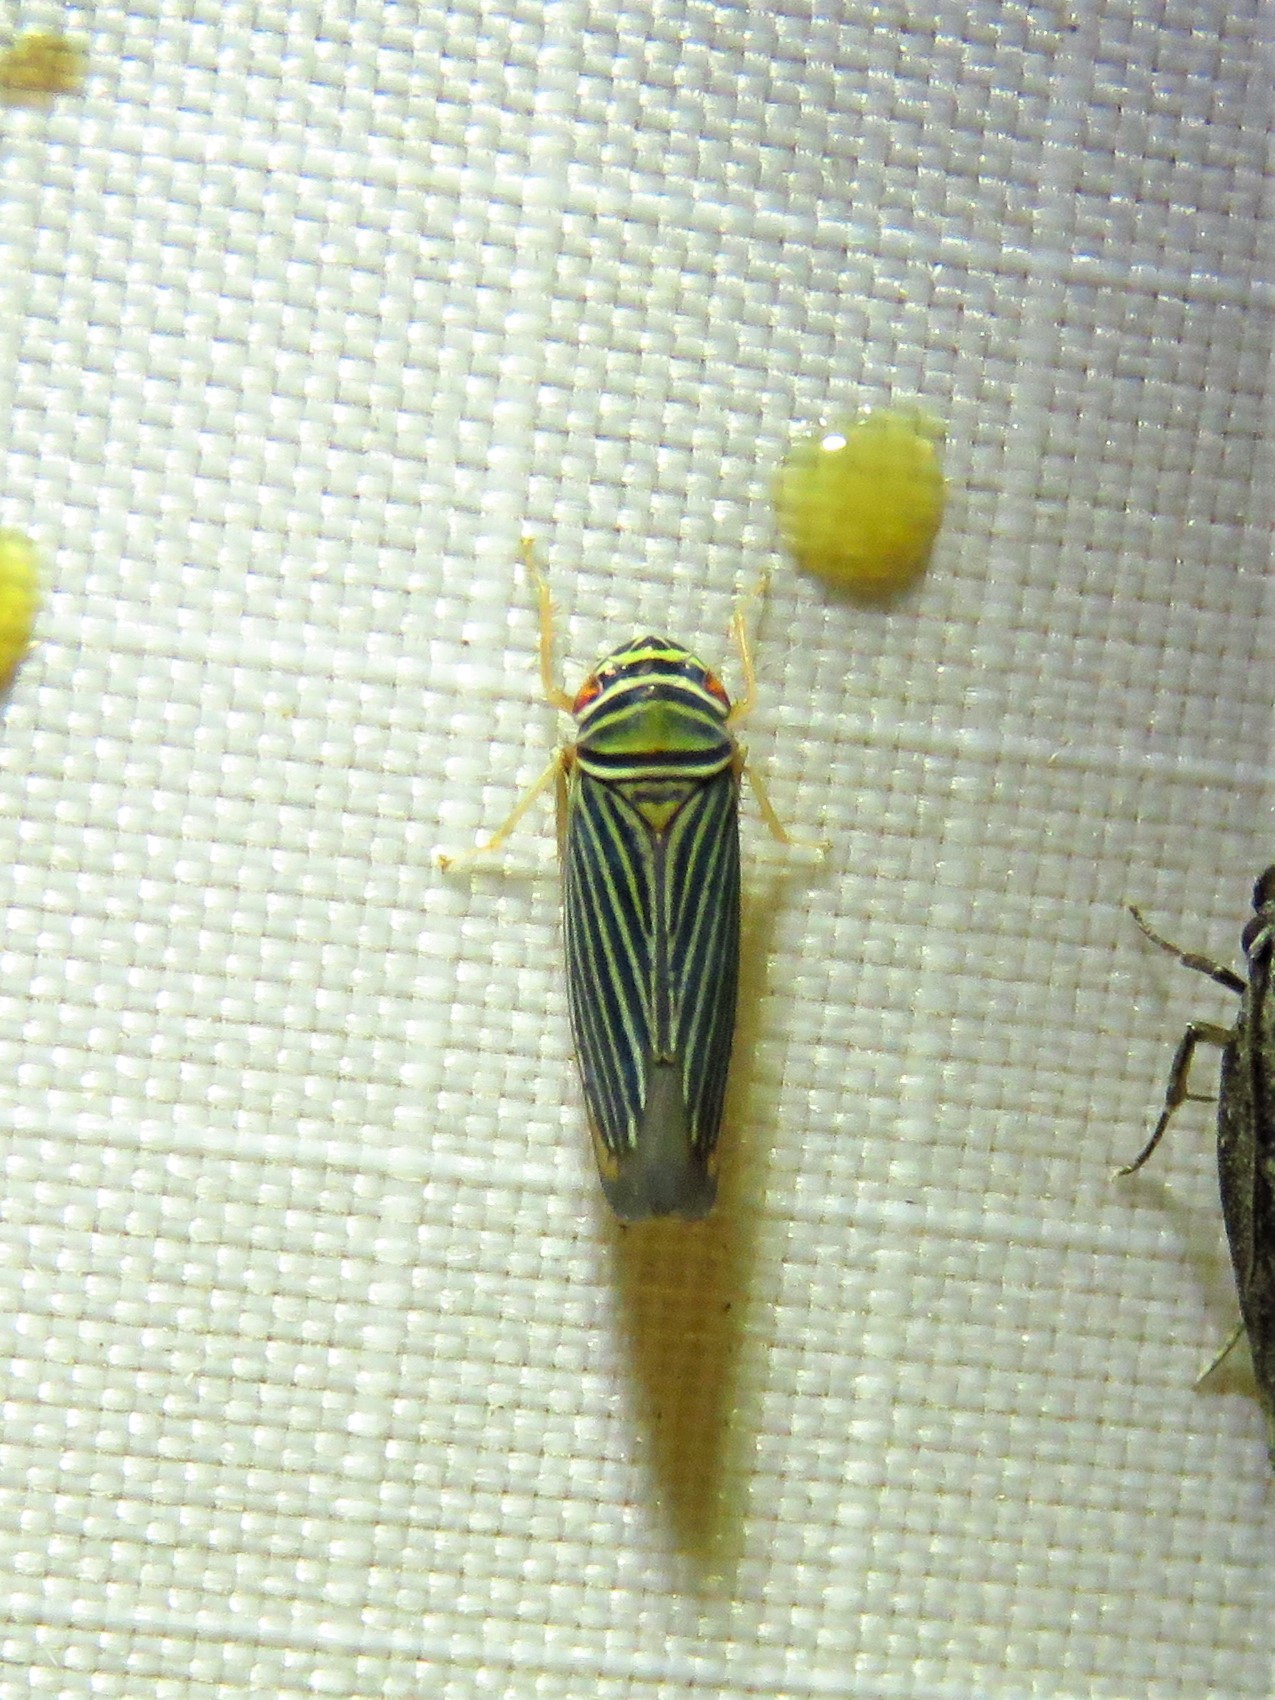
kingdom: Animalia
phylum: Arthropoda
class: Insecta
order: Hemiptera
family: Cicadellidae
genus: Tylozygus
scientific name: Tylozygus bifidus
